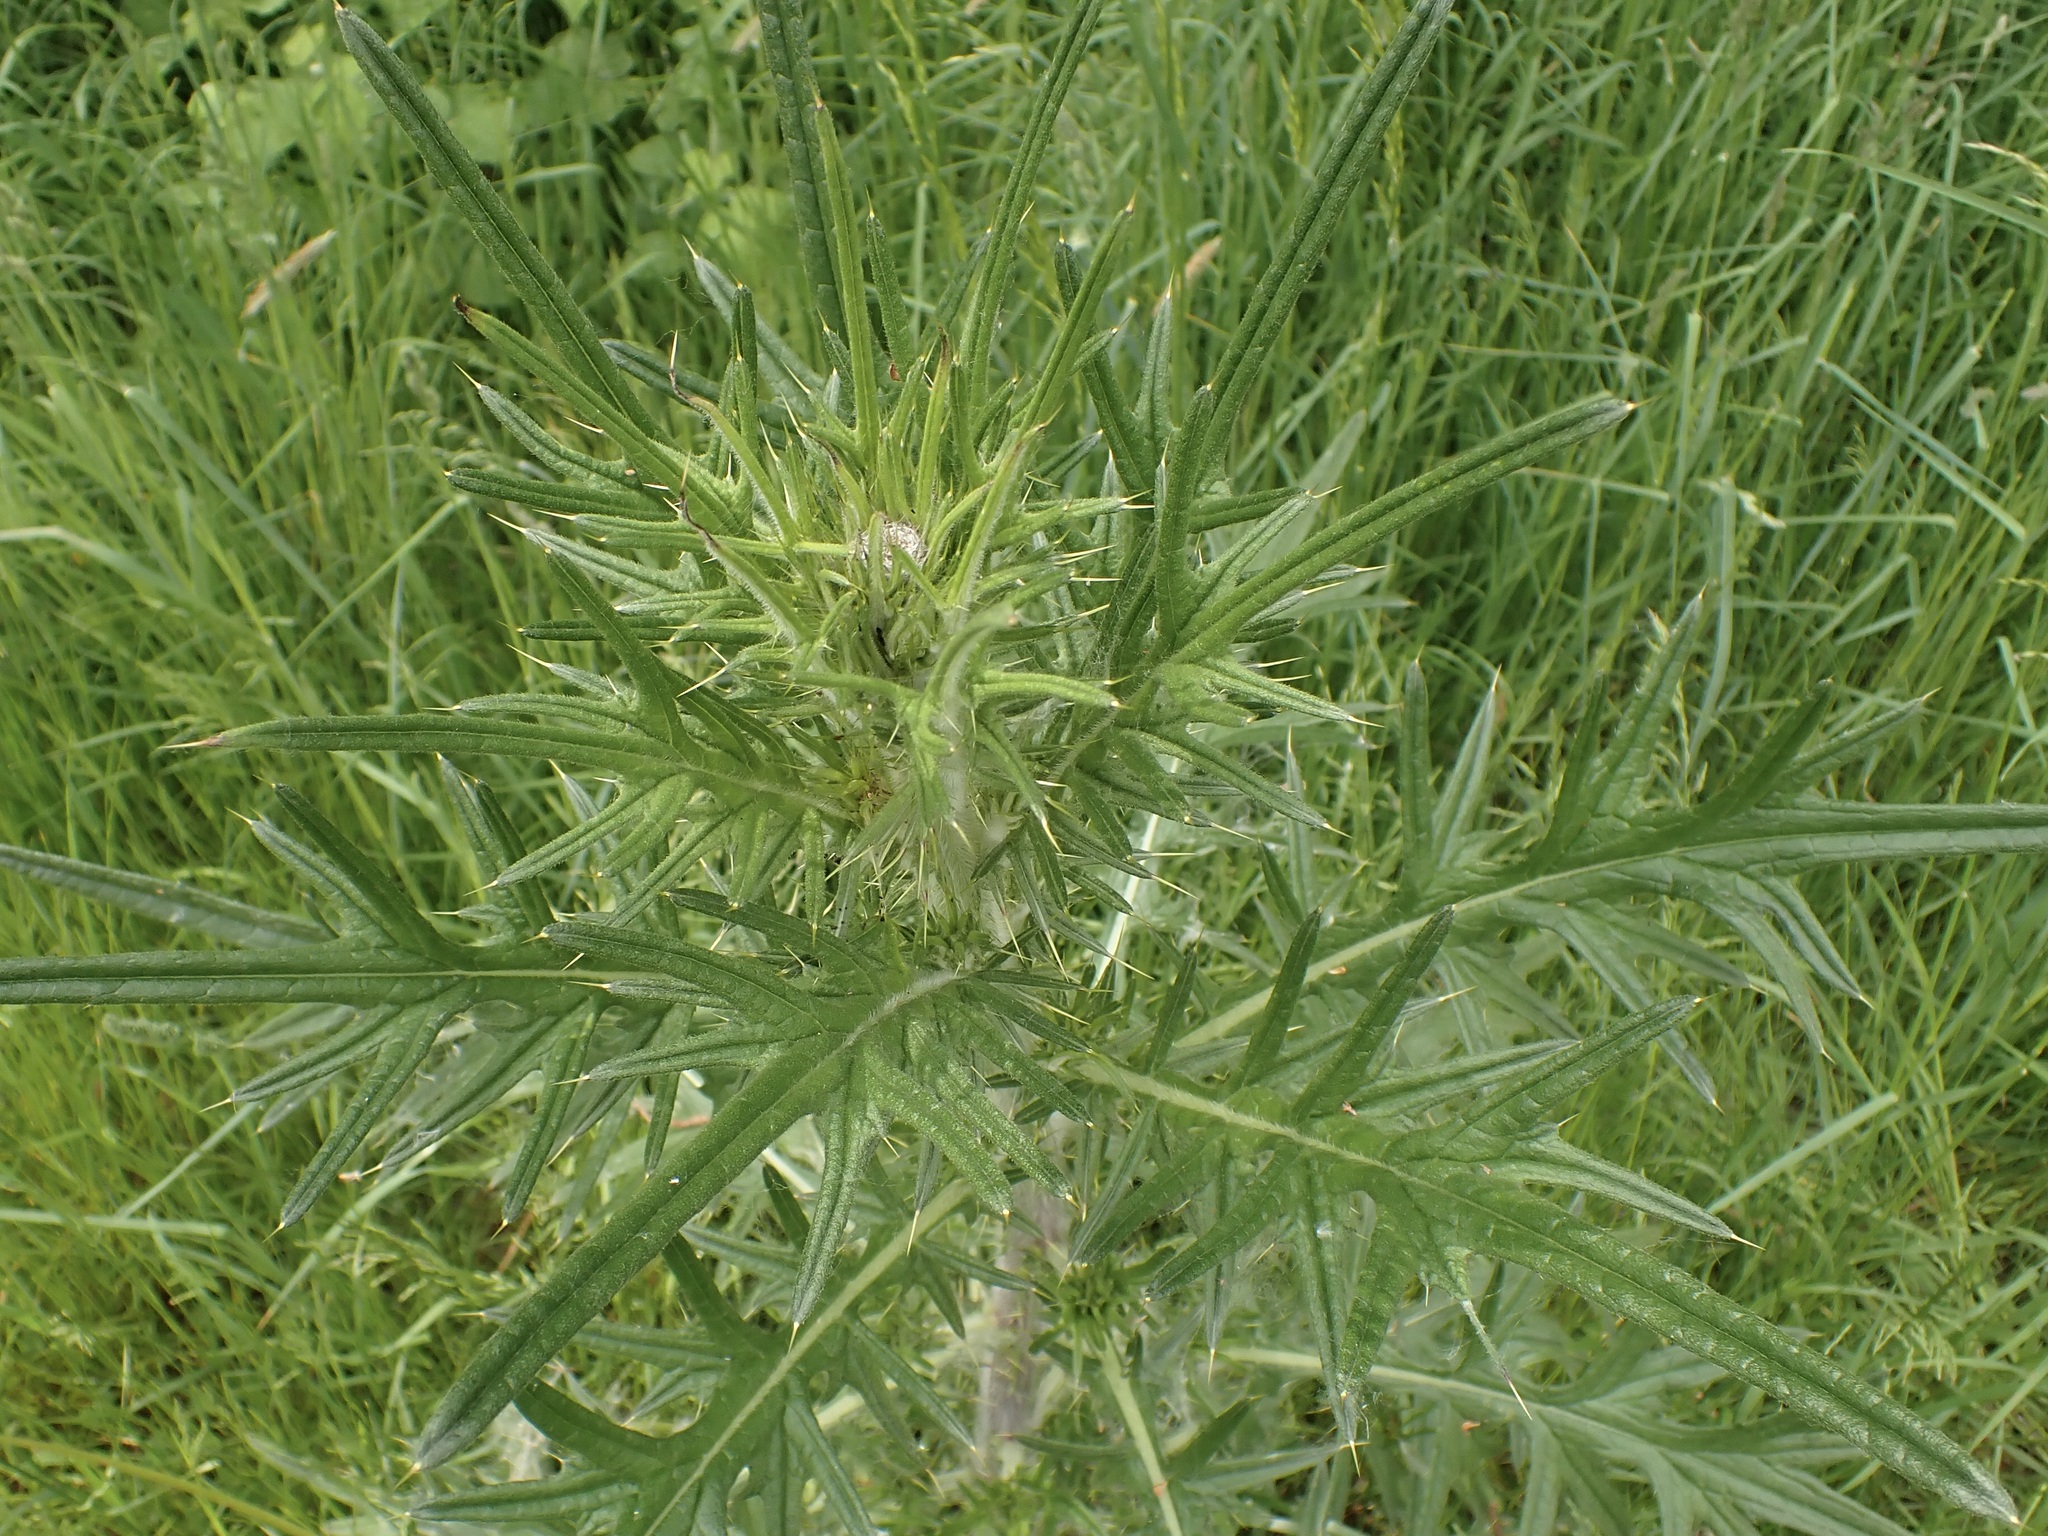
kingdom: Plantae
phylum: Tracheophyta
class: Magnoliopsida
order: Asterales
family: Asteraceae
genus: Cirsium
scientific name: Cirsium vulgare
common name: Bull thistle
